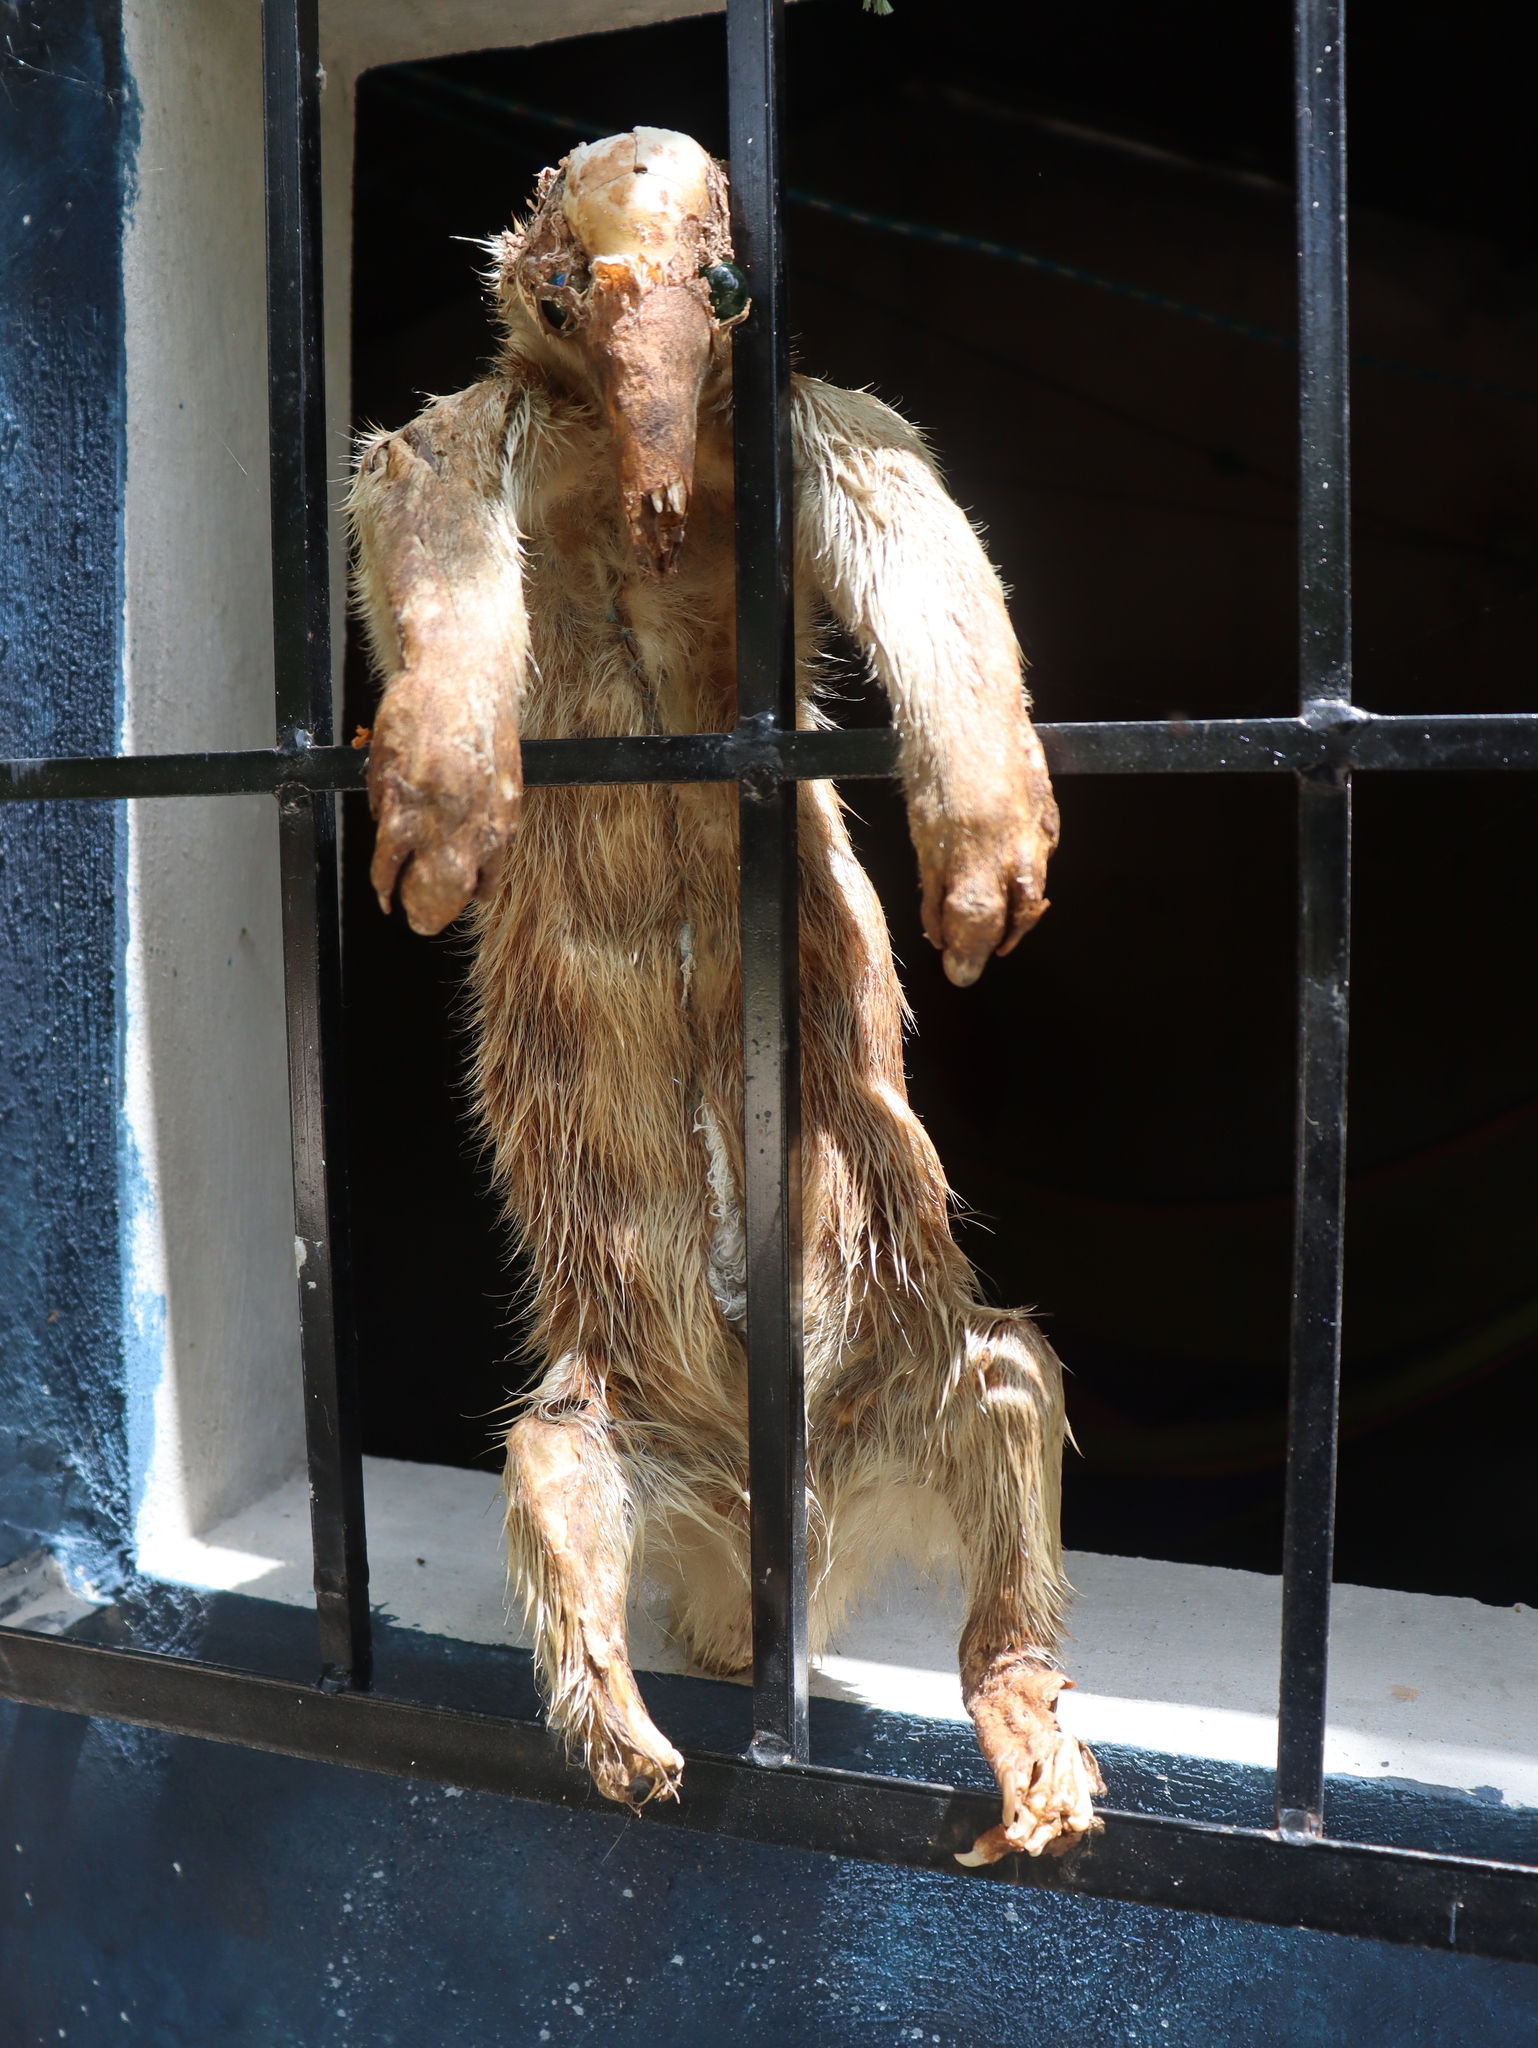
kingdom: Animalia
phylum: Chordata
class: Mammalia
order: Pilosa
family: Myrmecophagidae
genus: Tamandua
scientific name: Tamandua mexicana
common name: Northern tamandua
